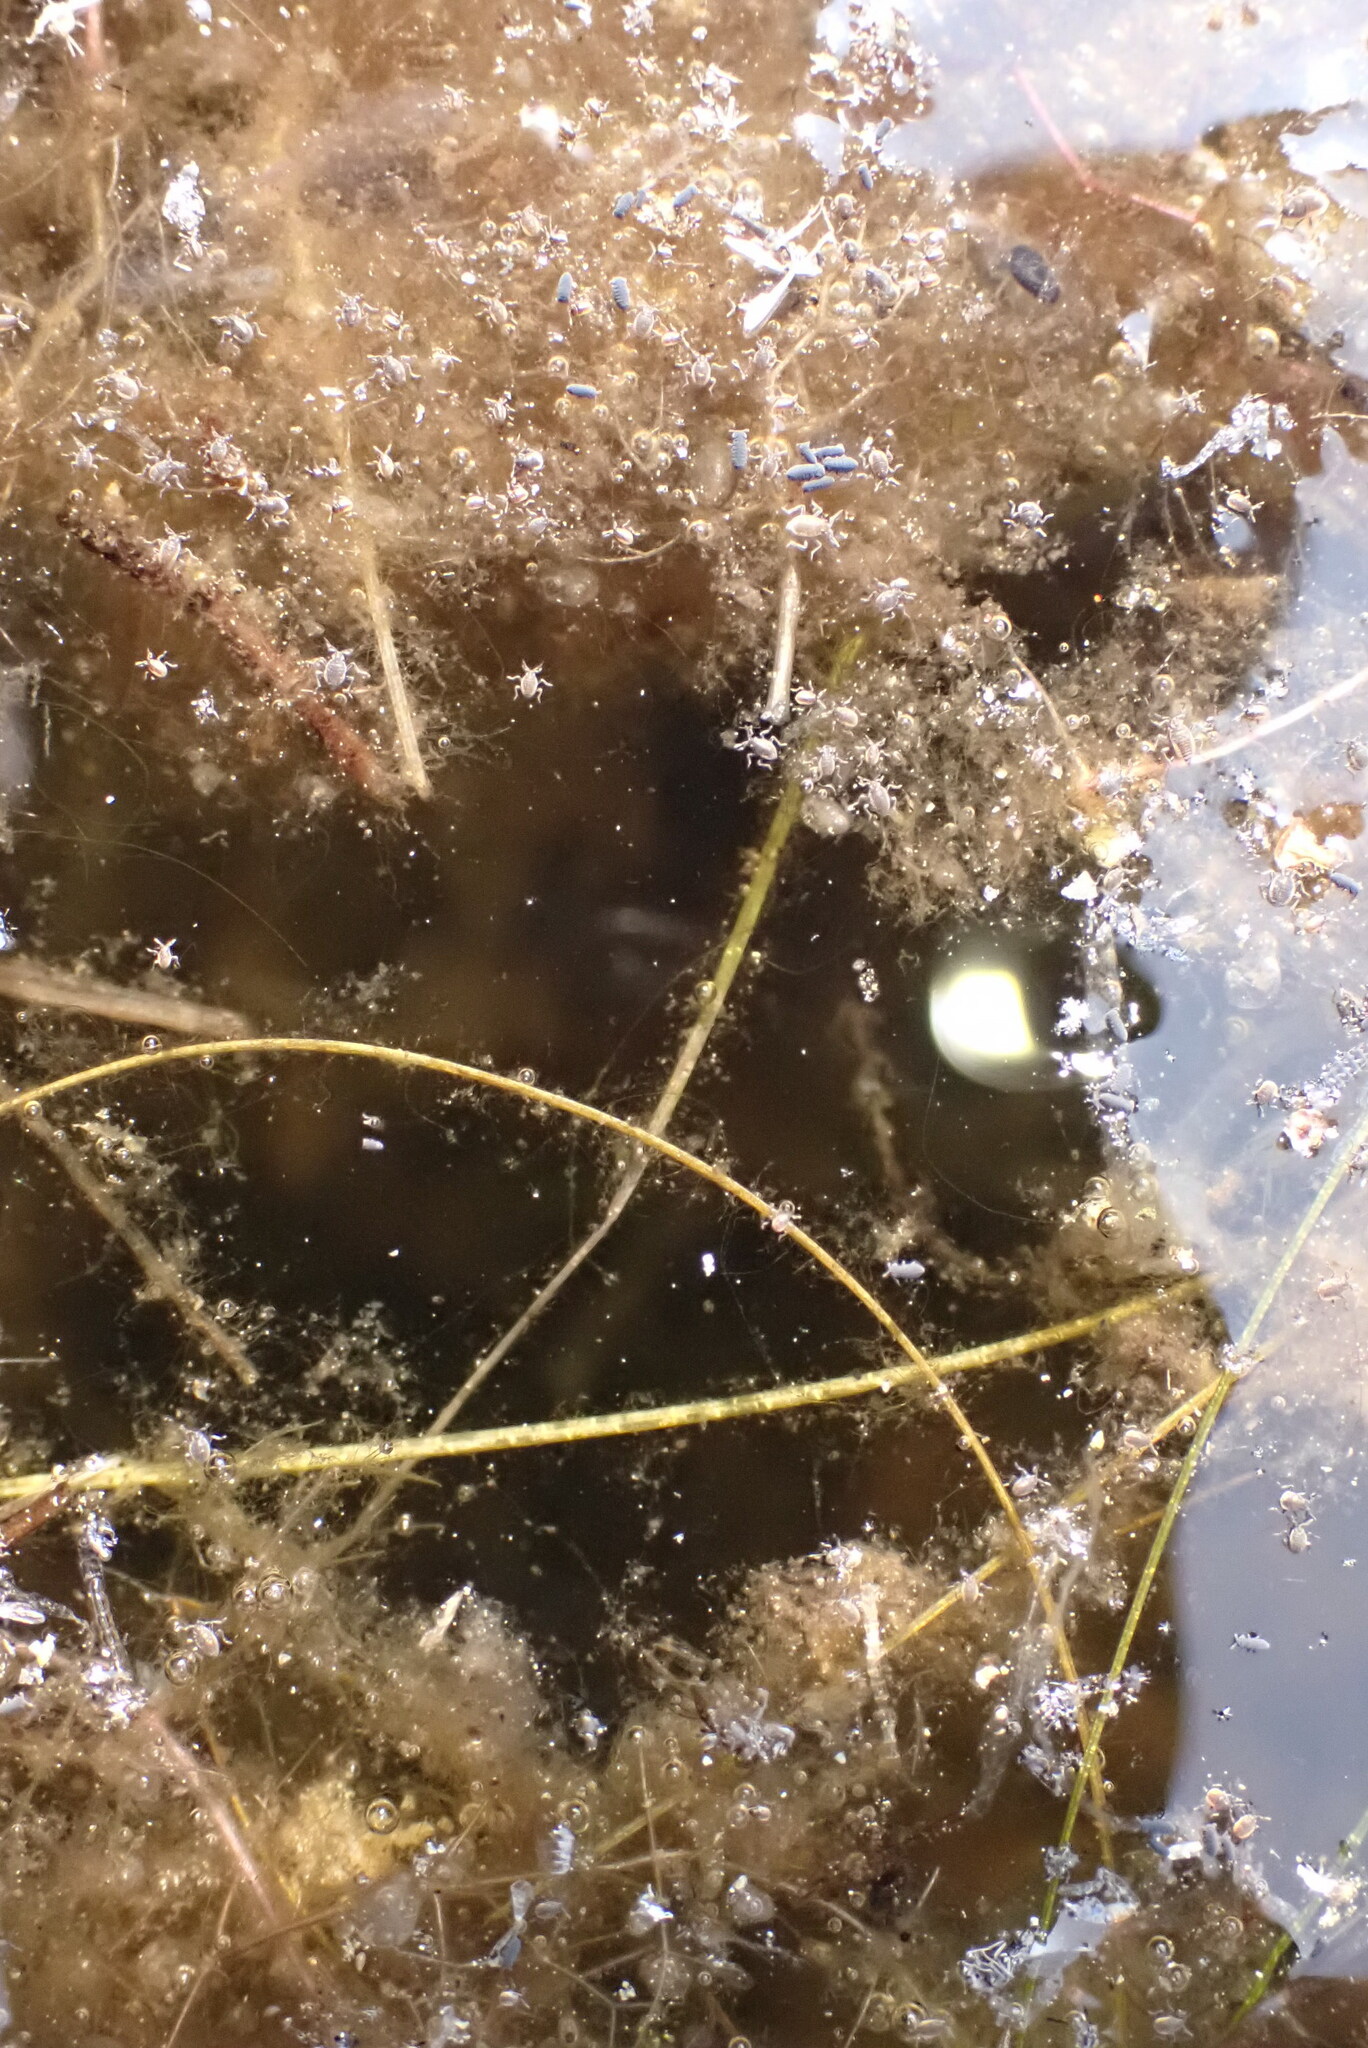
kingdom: Animalia
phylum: Arthropoda
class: Insecta
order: Hemiptera
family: Veliidae
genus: Microvelia
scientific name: Microvelia
